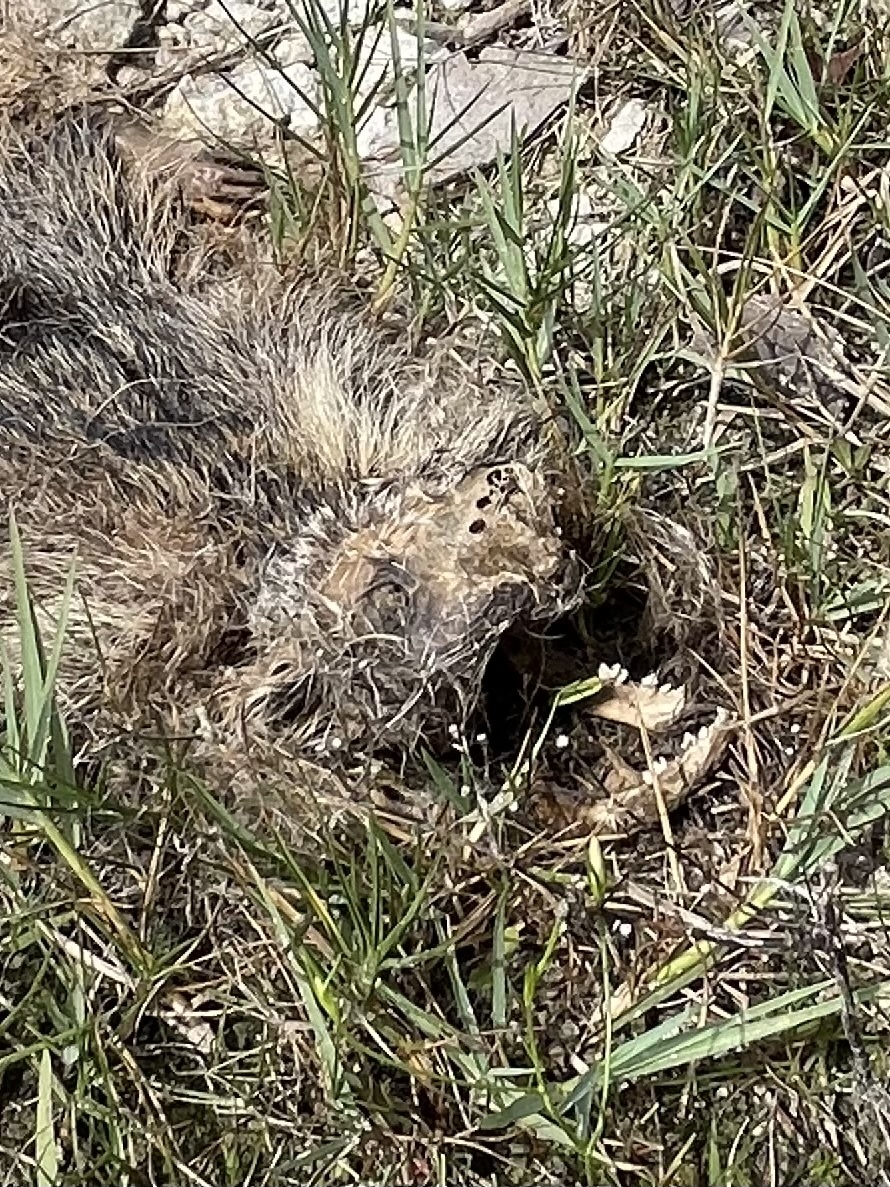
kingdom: Animalia
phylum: Chordata
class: Mammalia
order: Carnivora
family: Procyonidae
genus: Procyon
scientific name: Procyon lotor
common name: Raccoon
